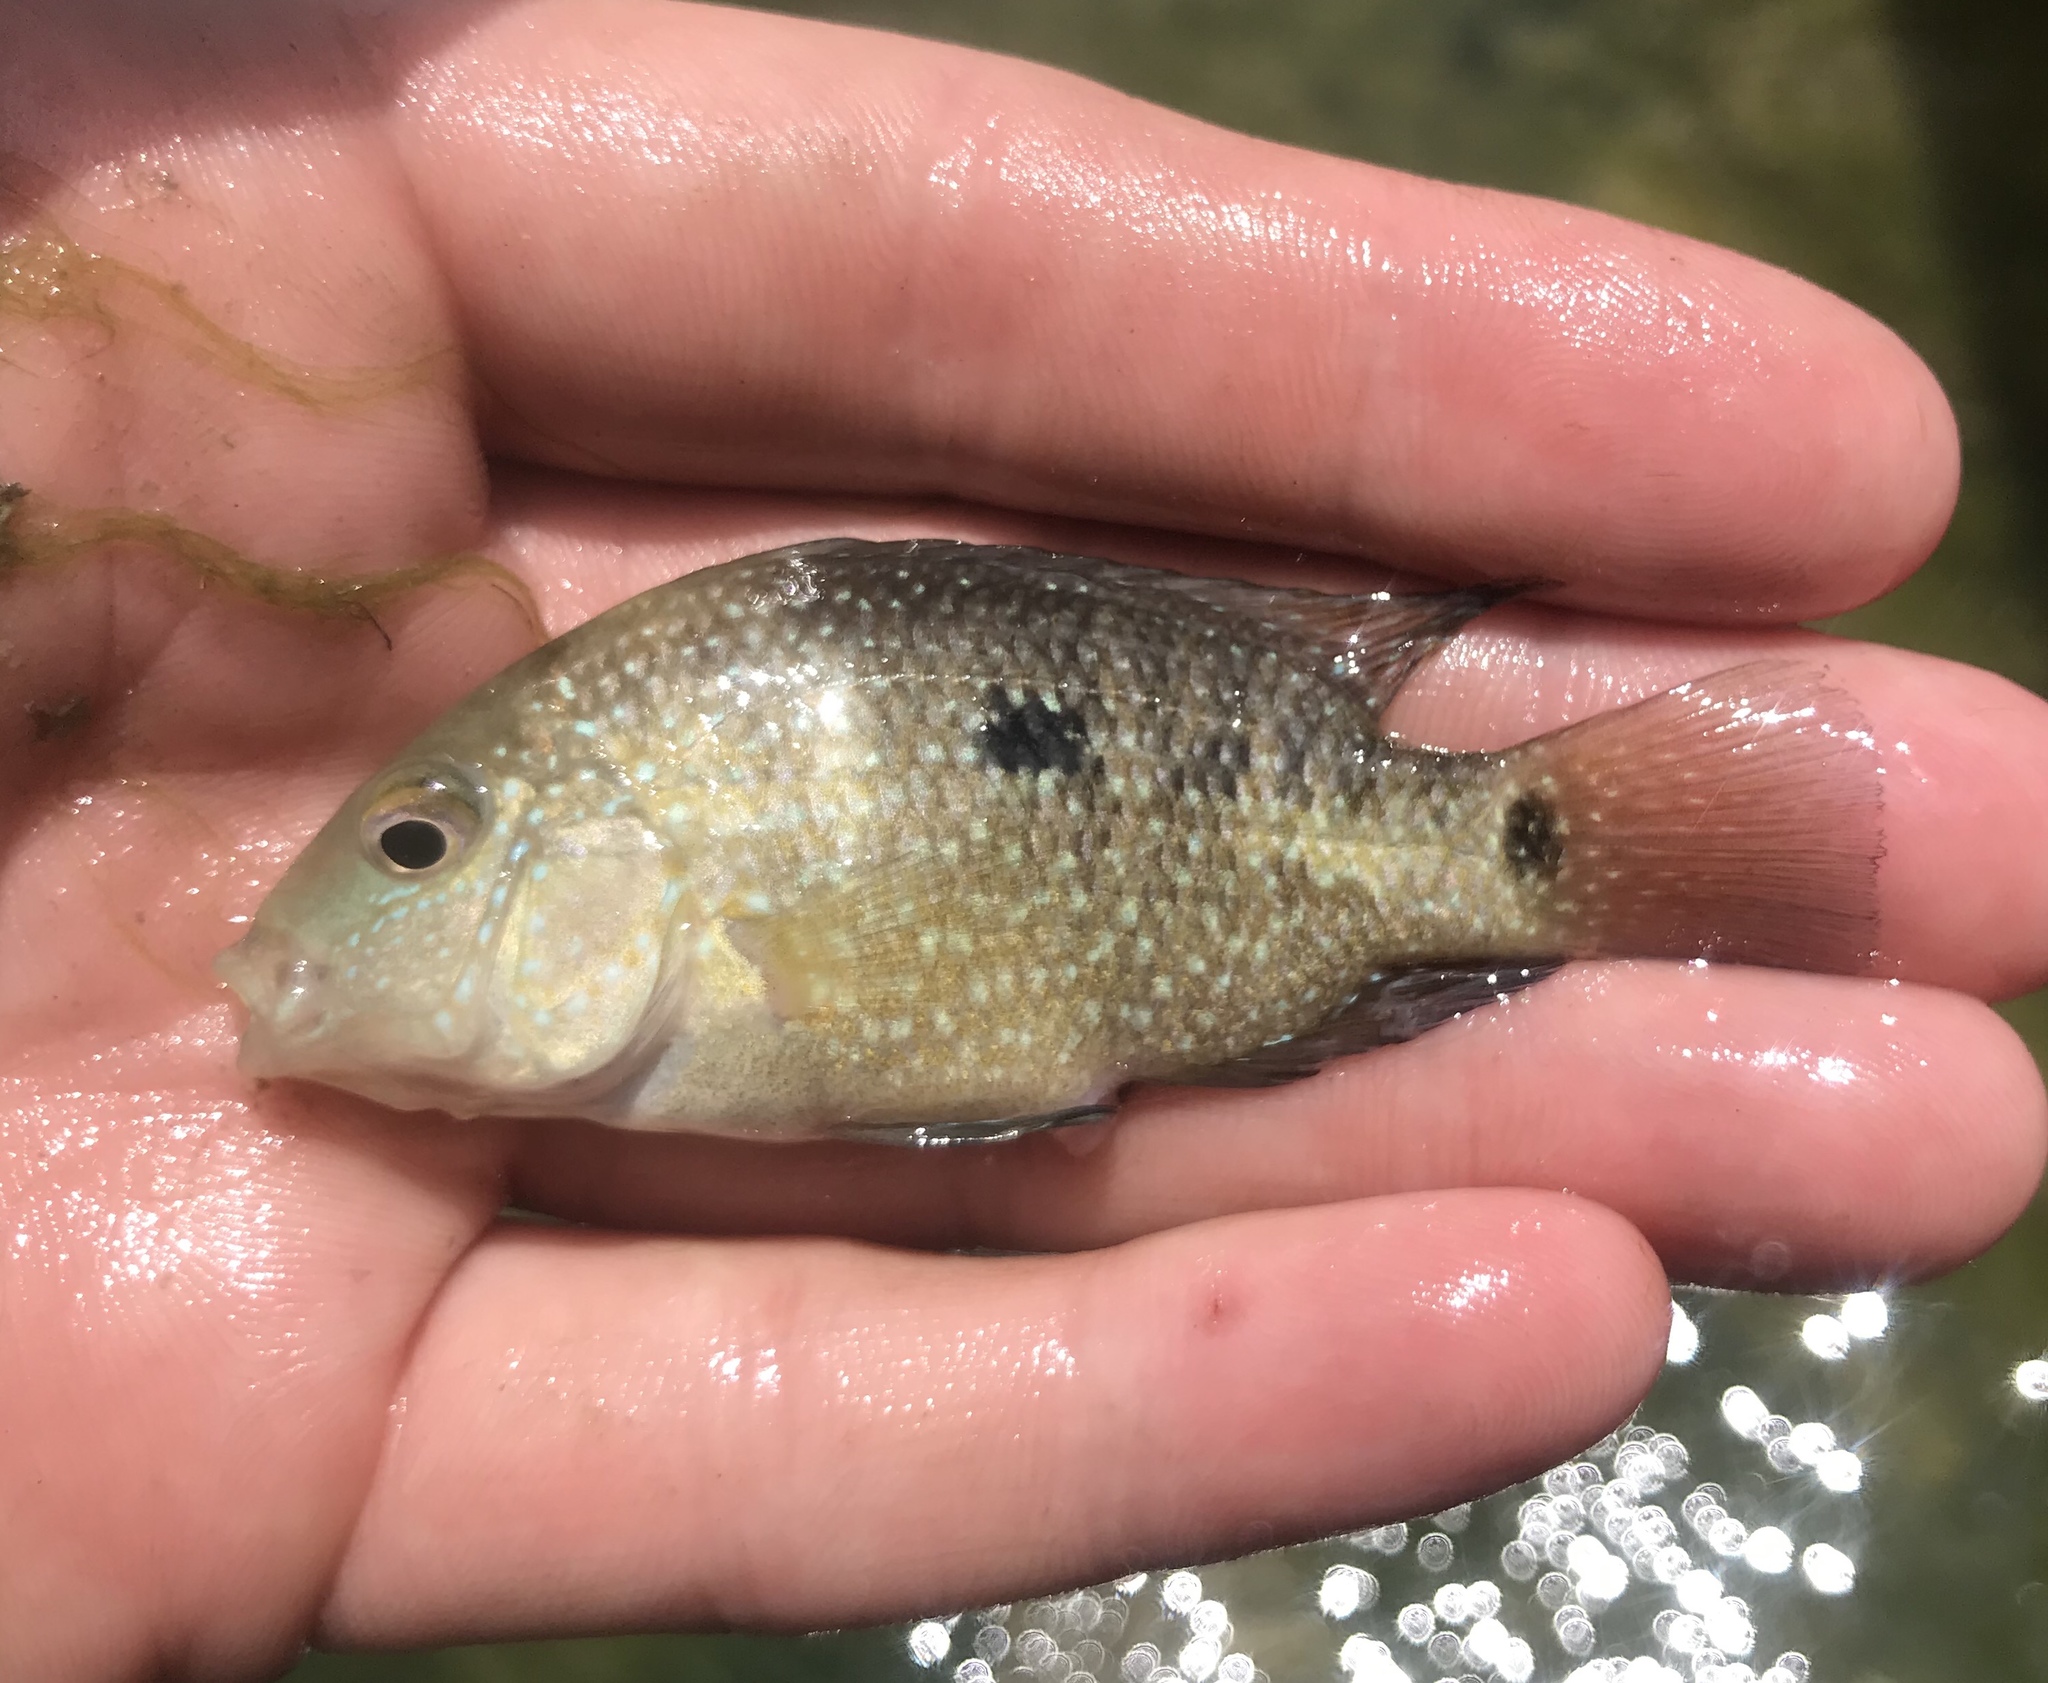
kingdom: Animalia
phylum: Chordata
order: Perciformes
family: Cichlidae
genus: Herichthys
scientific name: Herichthys cyanoguttatus
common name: Rio grande cichlid
